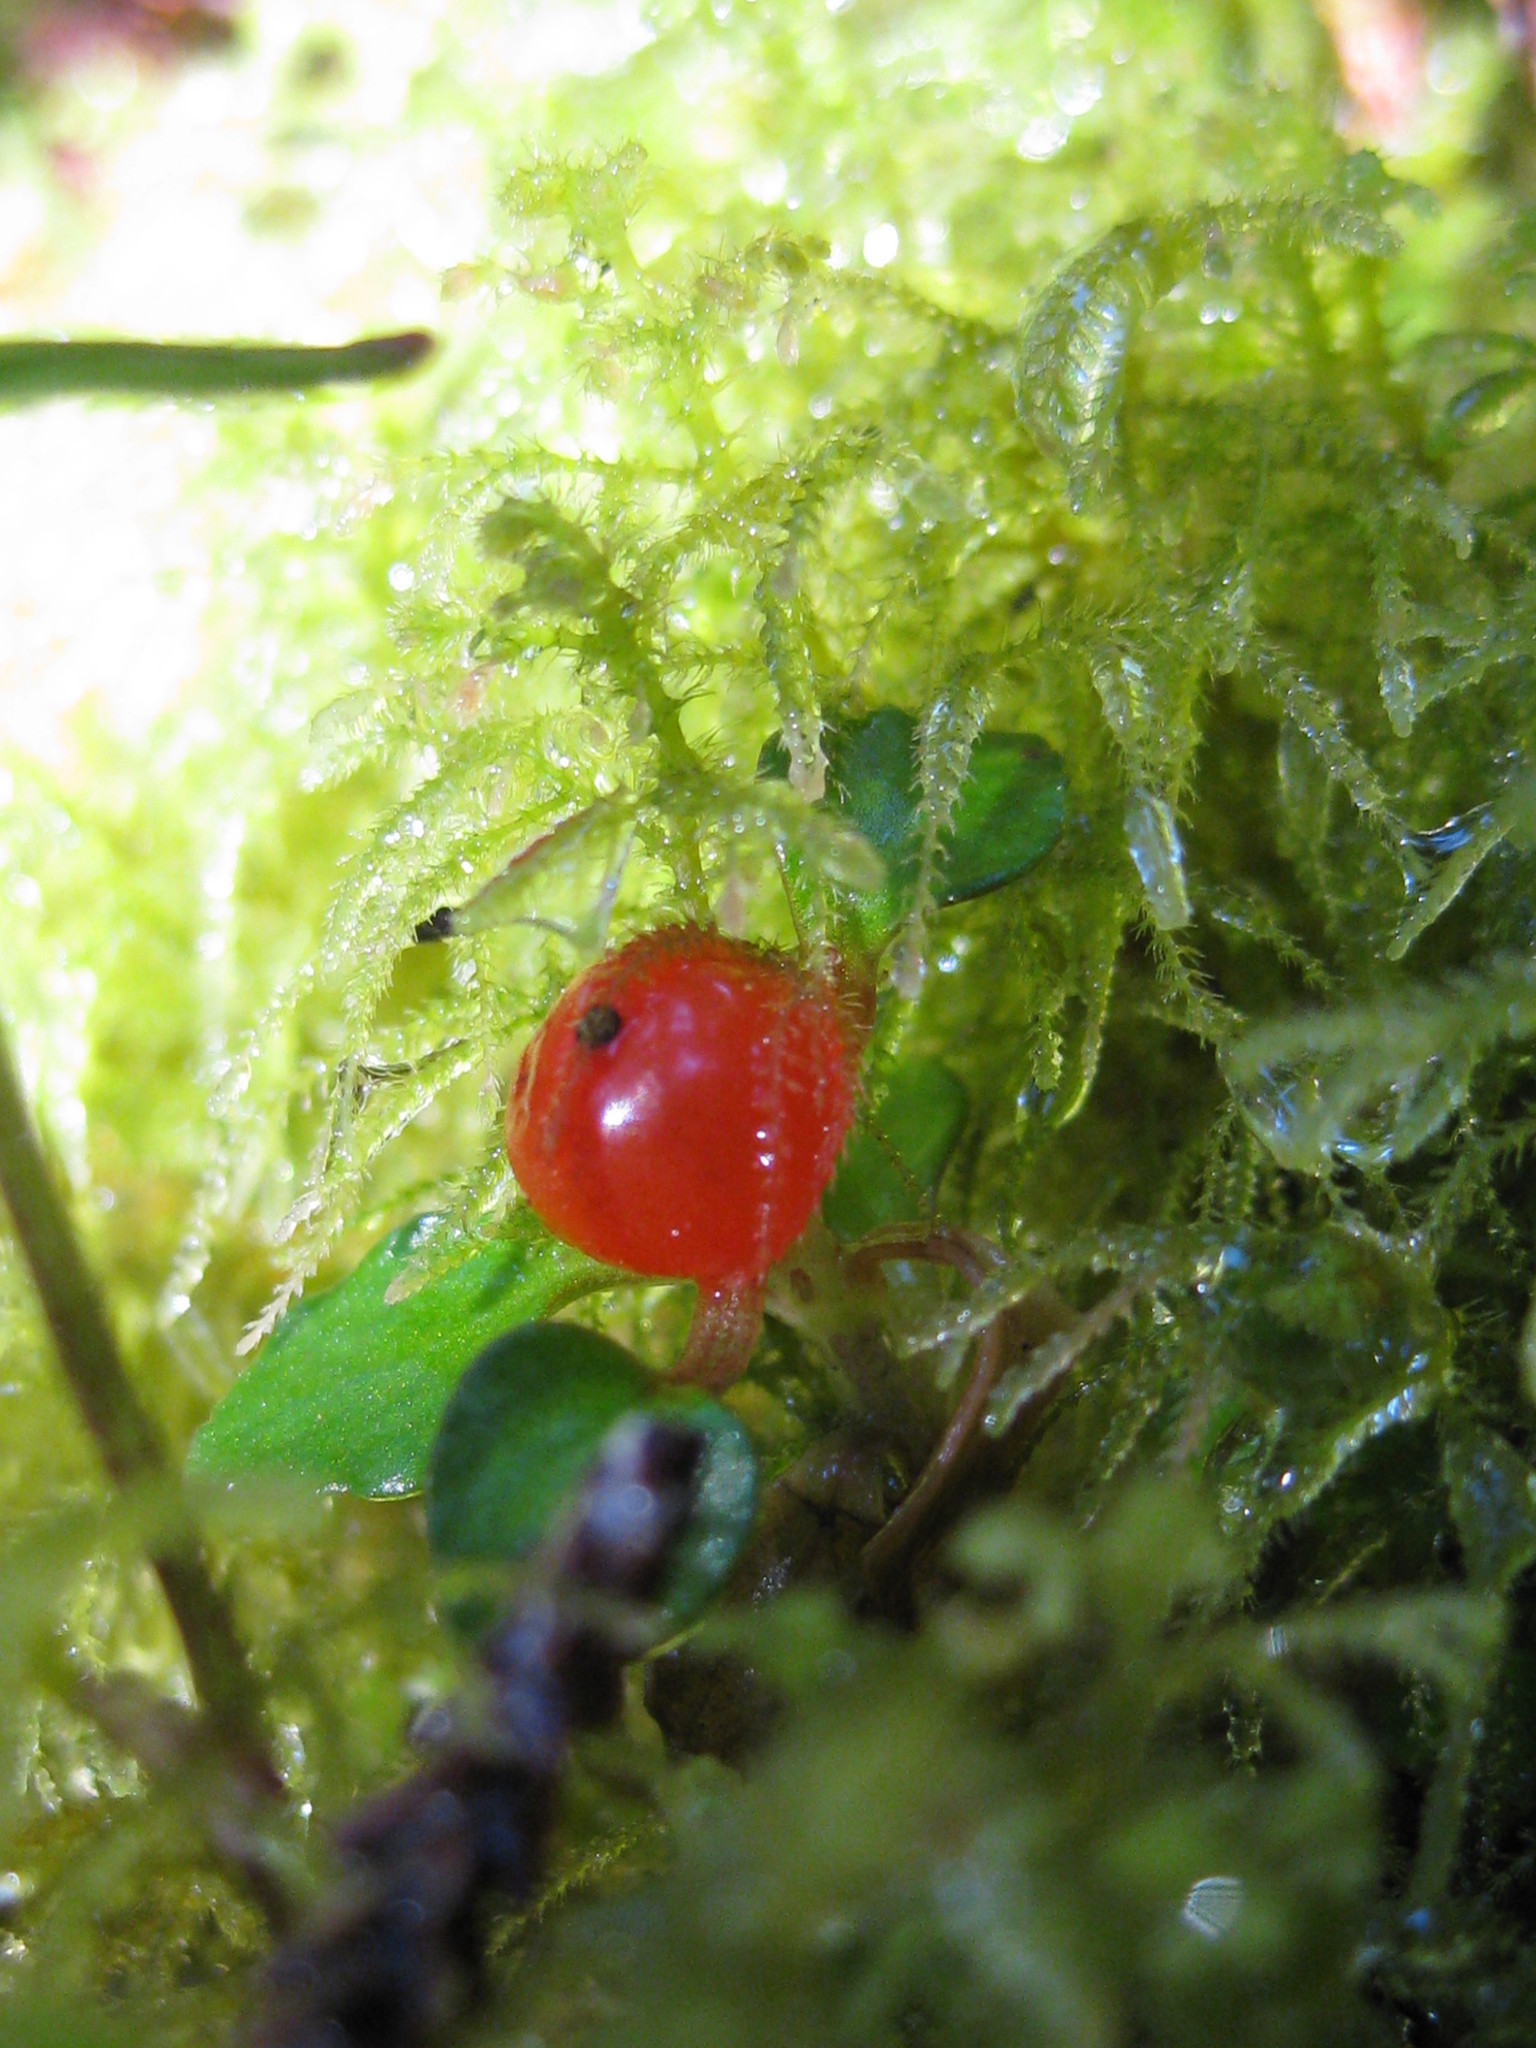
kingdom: Plantae
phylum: Tracheophyta
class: Magnoliopsida
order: Gentianales
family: Rubiaceae
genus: Nertera
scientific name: Nertera granadensis
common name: Beadplant
